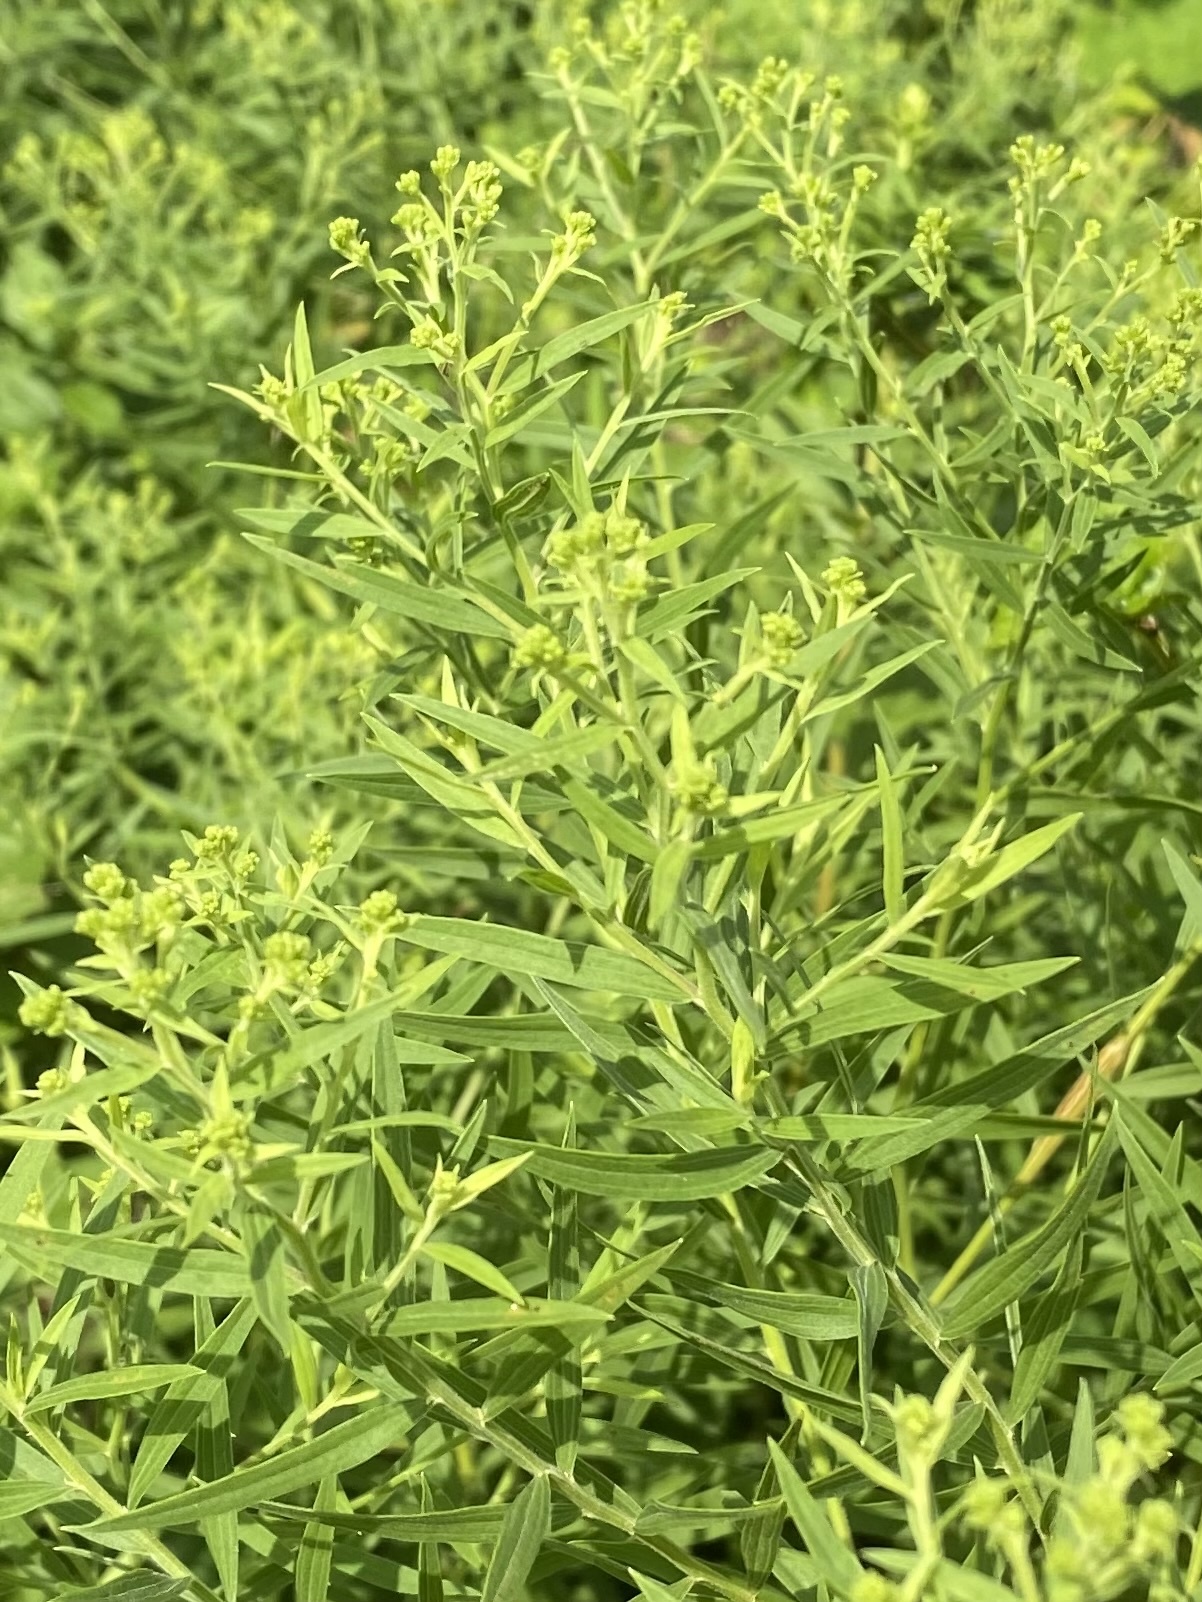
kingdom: Plantae
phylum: Tracheophyta
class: Magnoliopsida
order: Asterales
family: Asteraceae
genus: Euthamia
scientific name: Euthamia graminifolia
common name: Common goldentop
